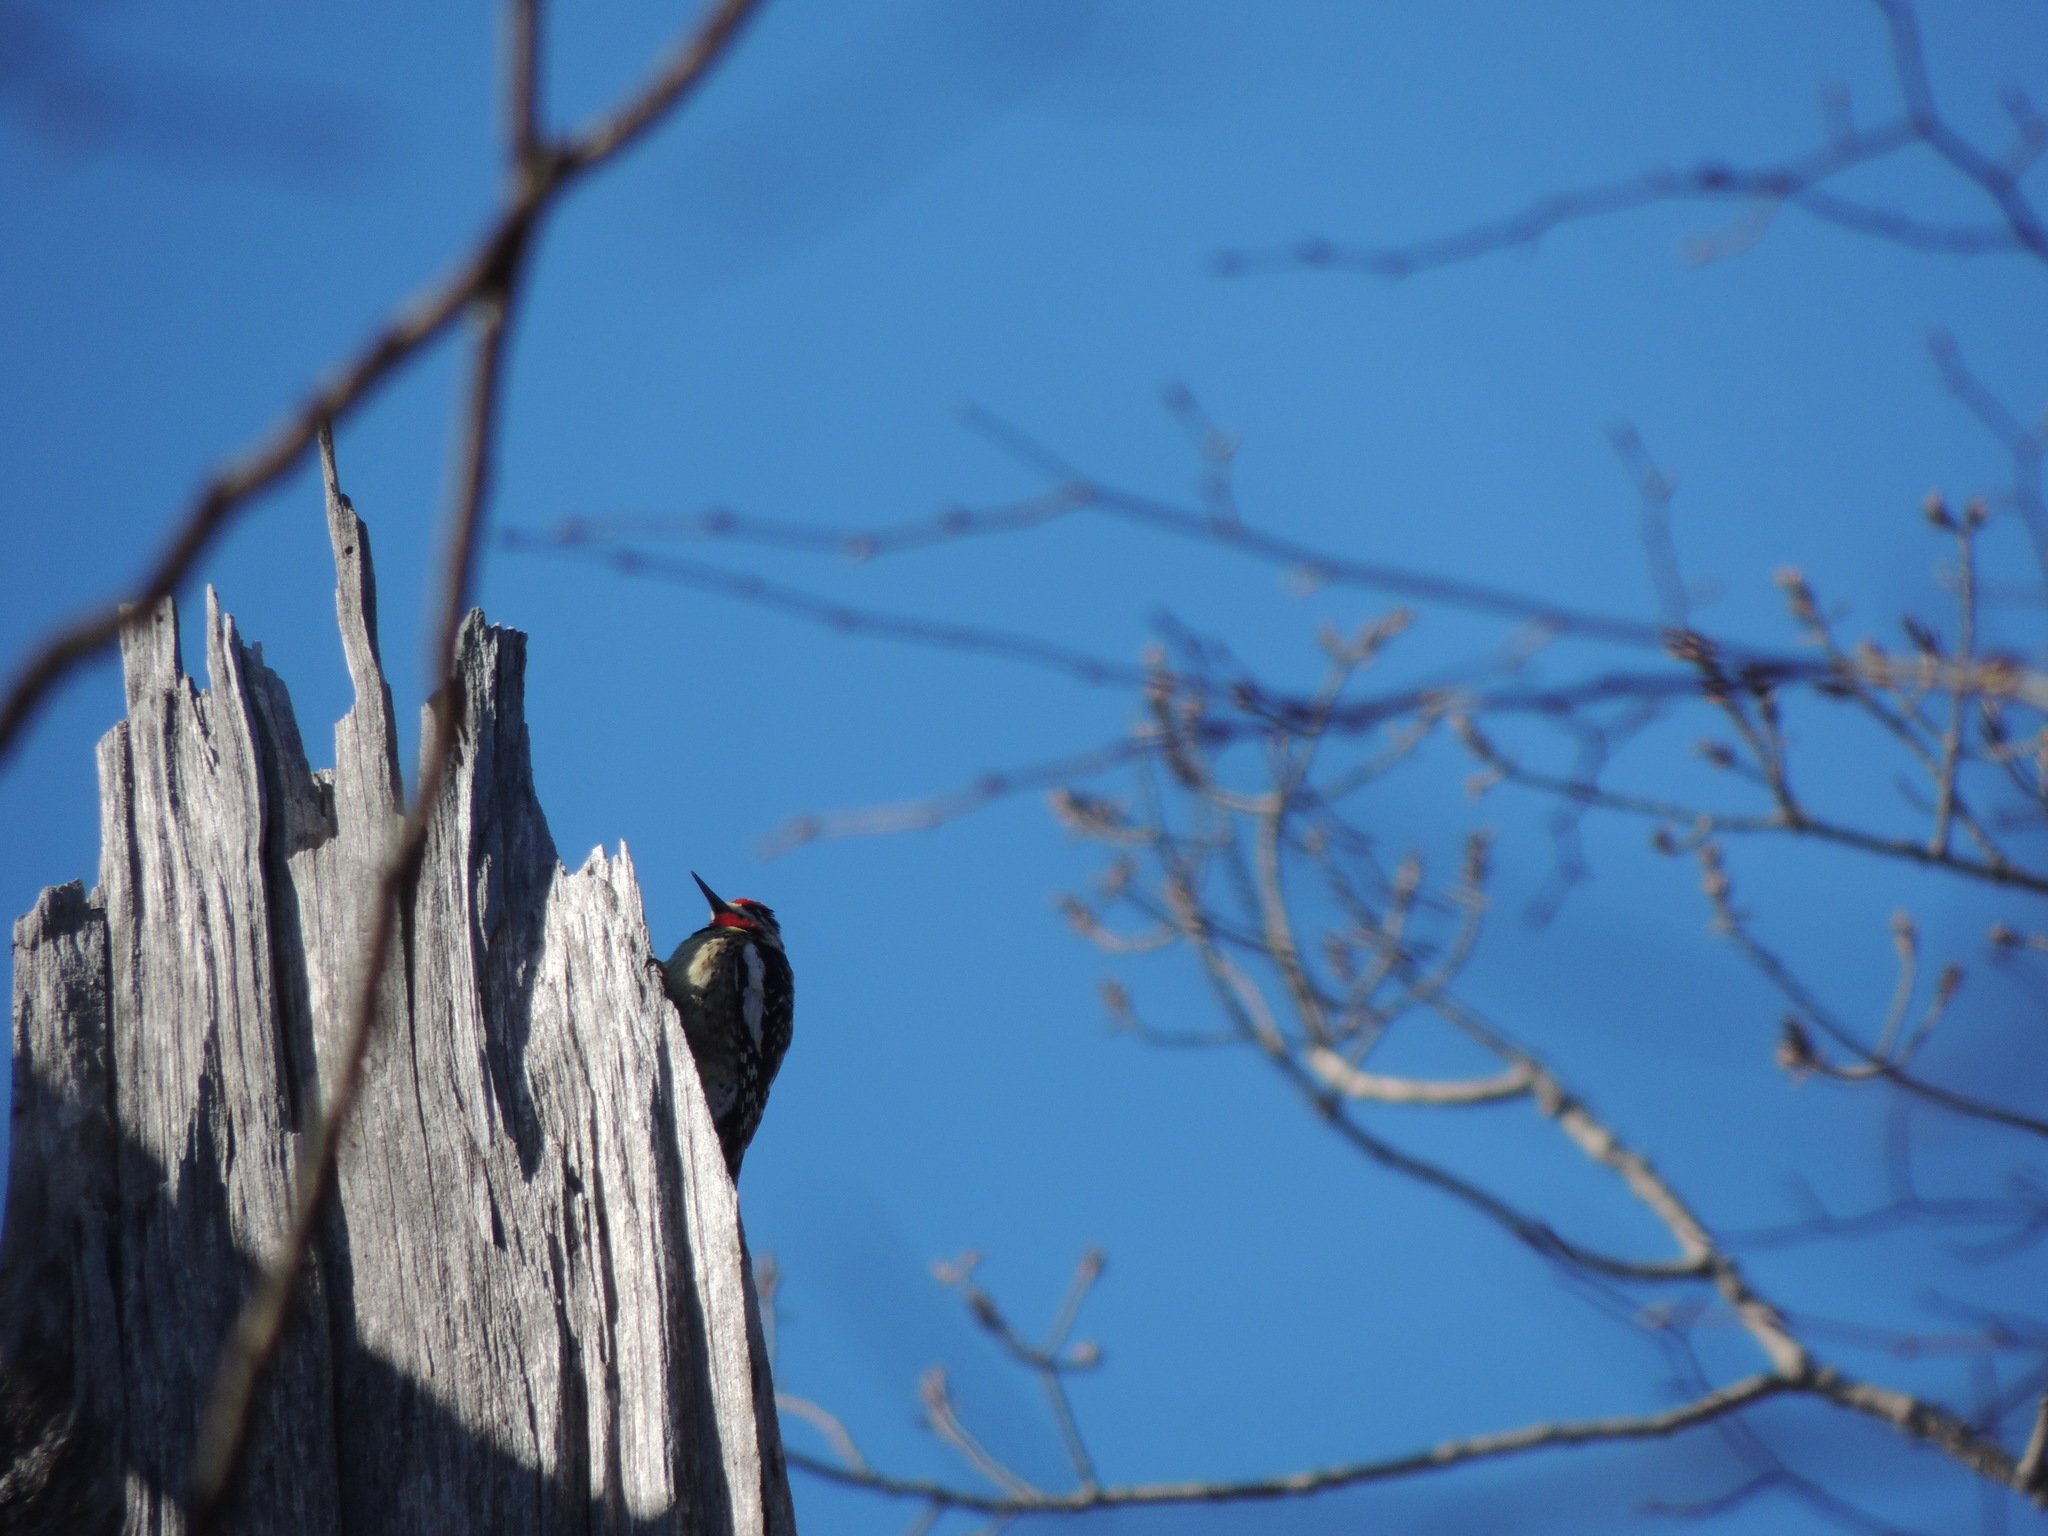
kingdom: Animalia
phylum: Chordata
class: Aves
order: Piciformes
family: Picidae
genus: Sphyrapicus
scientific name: Sphyrapicus varius
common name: Yellow-bellied sapsucker
